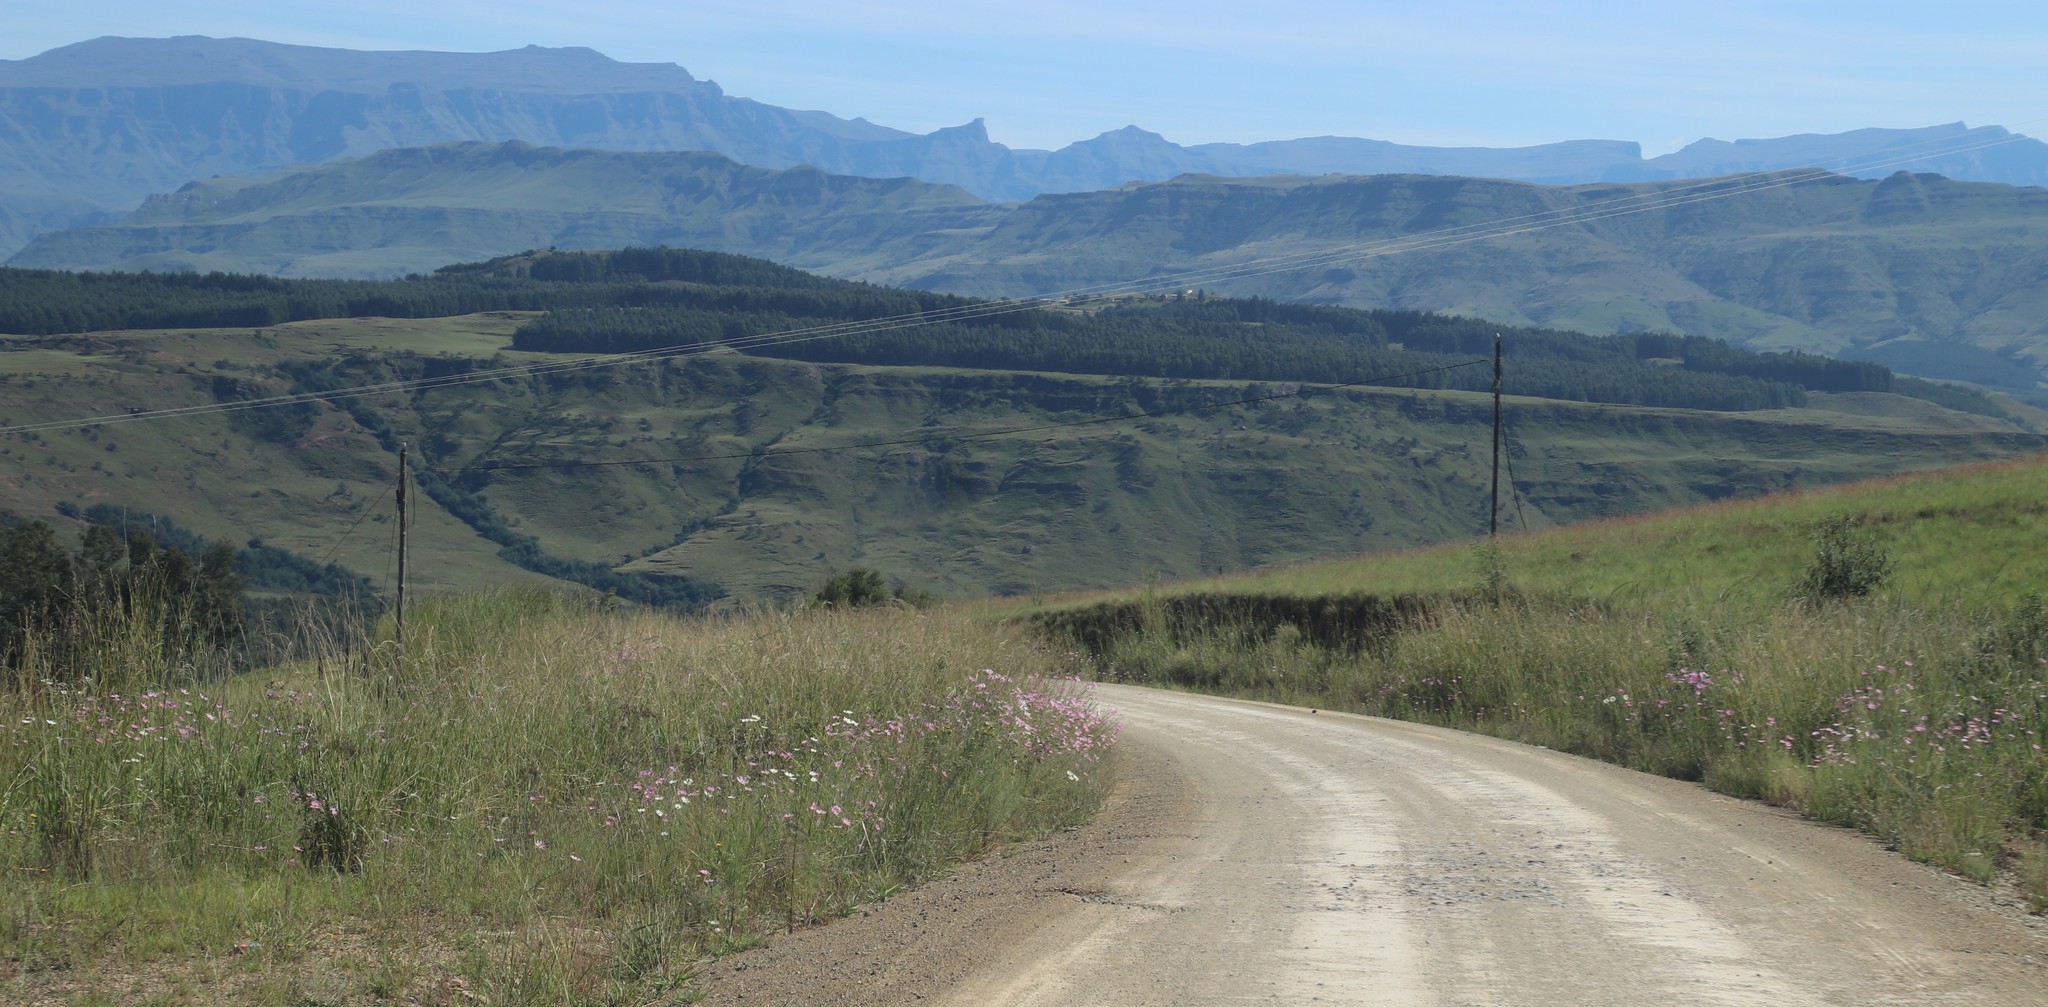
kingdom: Plantae
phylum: Tracheophyta
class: Magnoliopsida
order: Asterales
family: Asteraceae
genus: Cosmos
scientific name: Cosmos bipinnatus
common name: Garden cosmos
